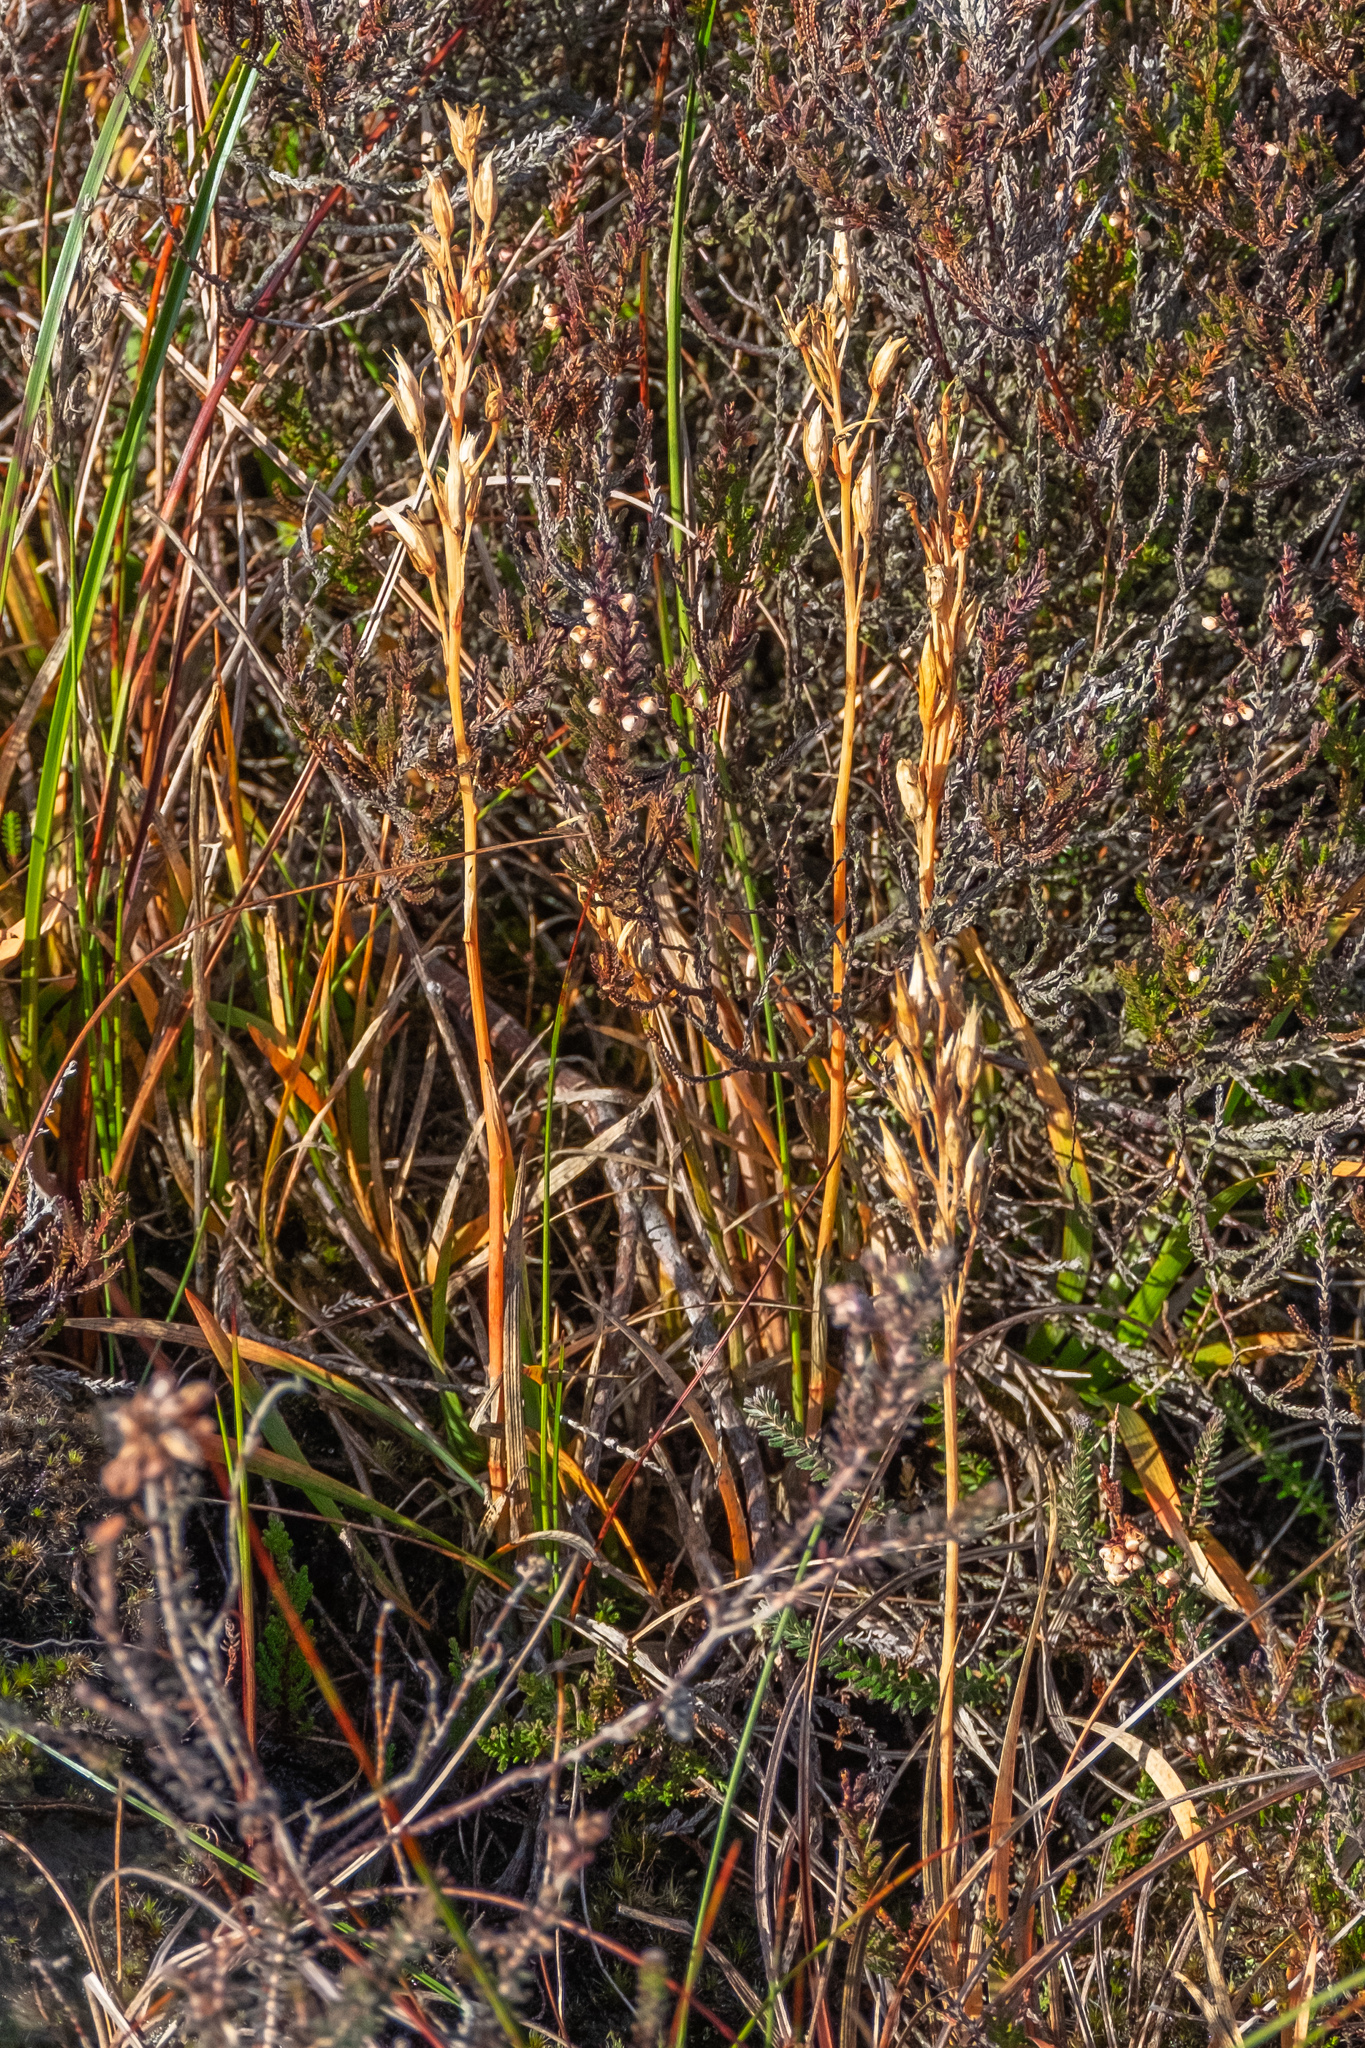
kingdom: Plantae
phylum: Tracheophyta
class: Liliopsida
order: Dioscoreales
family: Nartheciaceae
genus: Narthecium
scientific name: Narthecium ossifragum
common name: Bog asphodel
